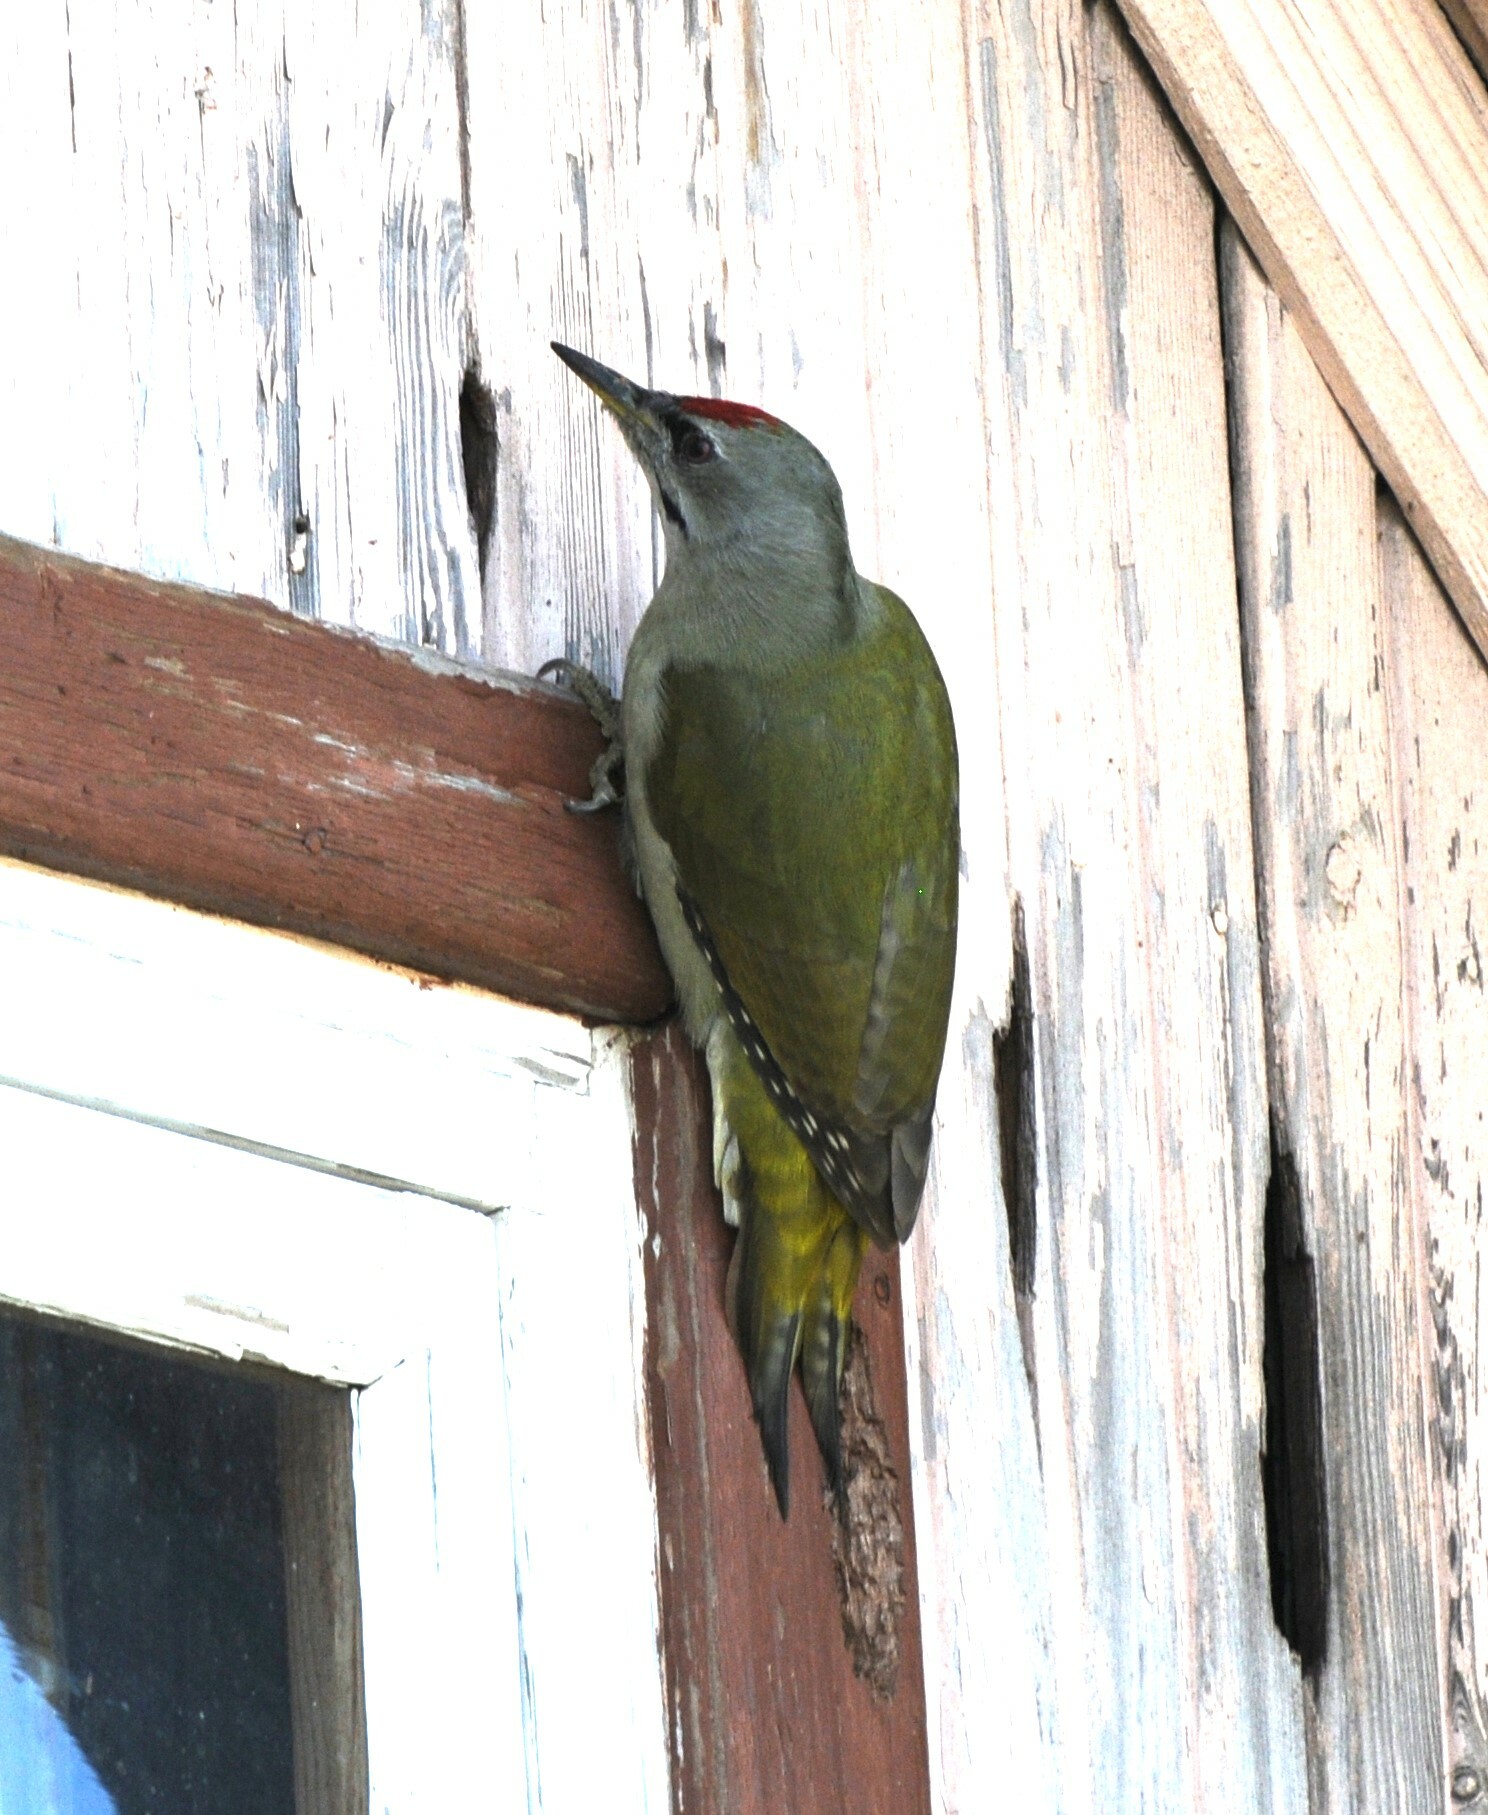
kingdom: Animalia
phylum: Chordata
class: Aves
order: Piciformes
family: Picidae
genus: Picus
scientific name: Picus canus
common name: Grey-headed woodpecker
